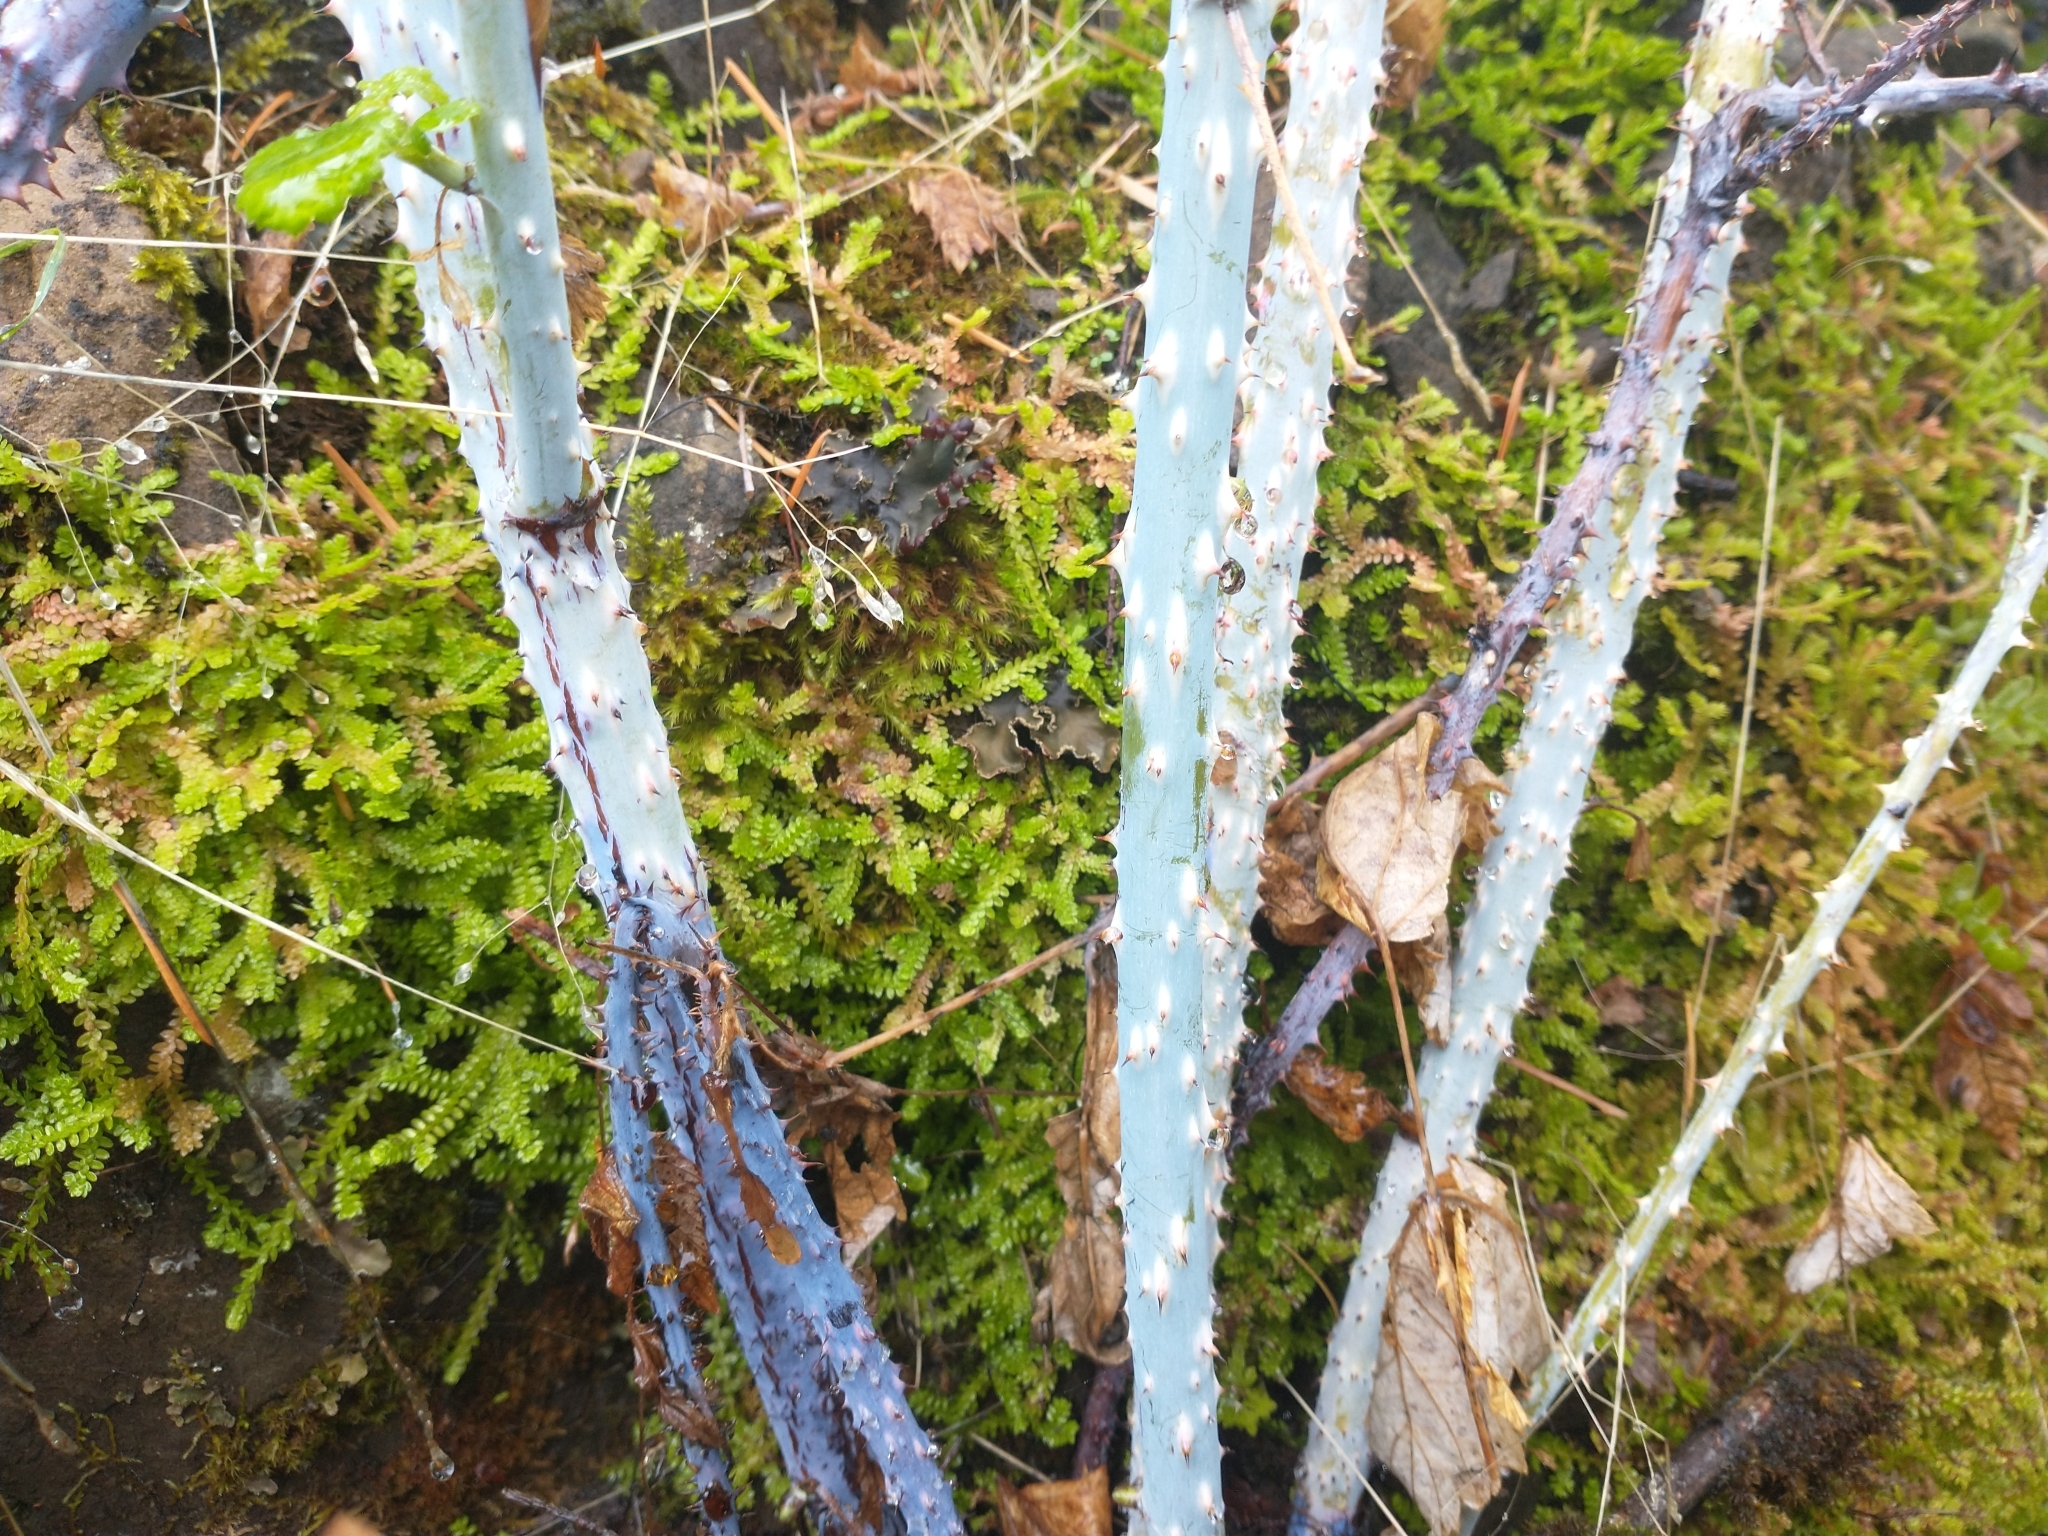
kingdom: Plantae
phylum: Tracheophyta
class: Magnoliopsida
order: Rosales
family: Rosaceae
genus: Rubus
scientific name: Rubus leucodermis
